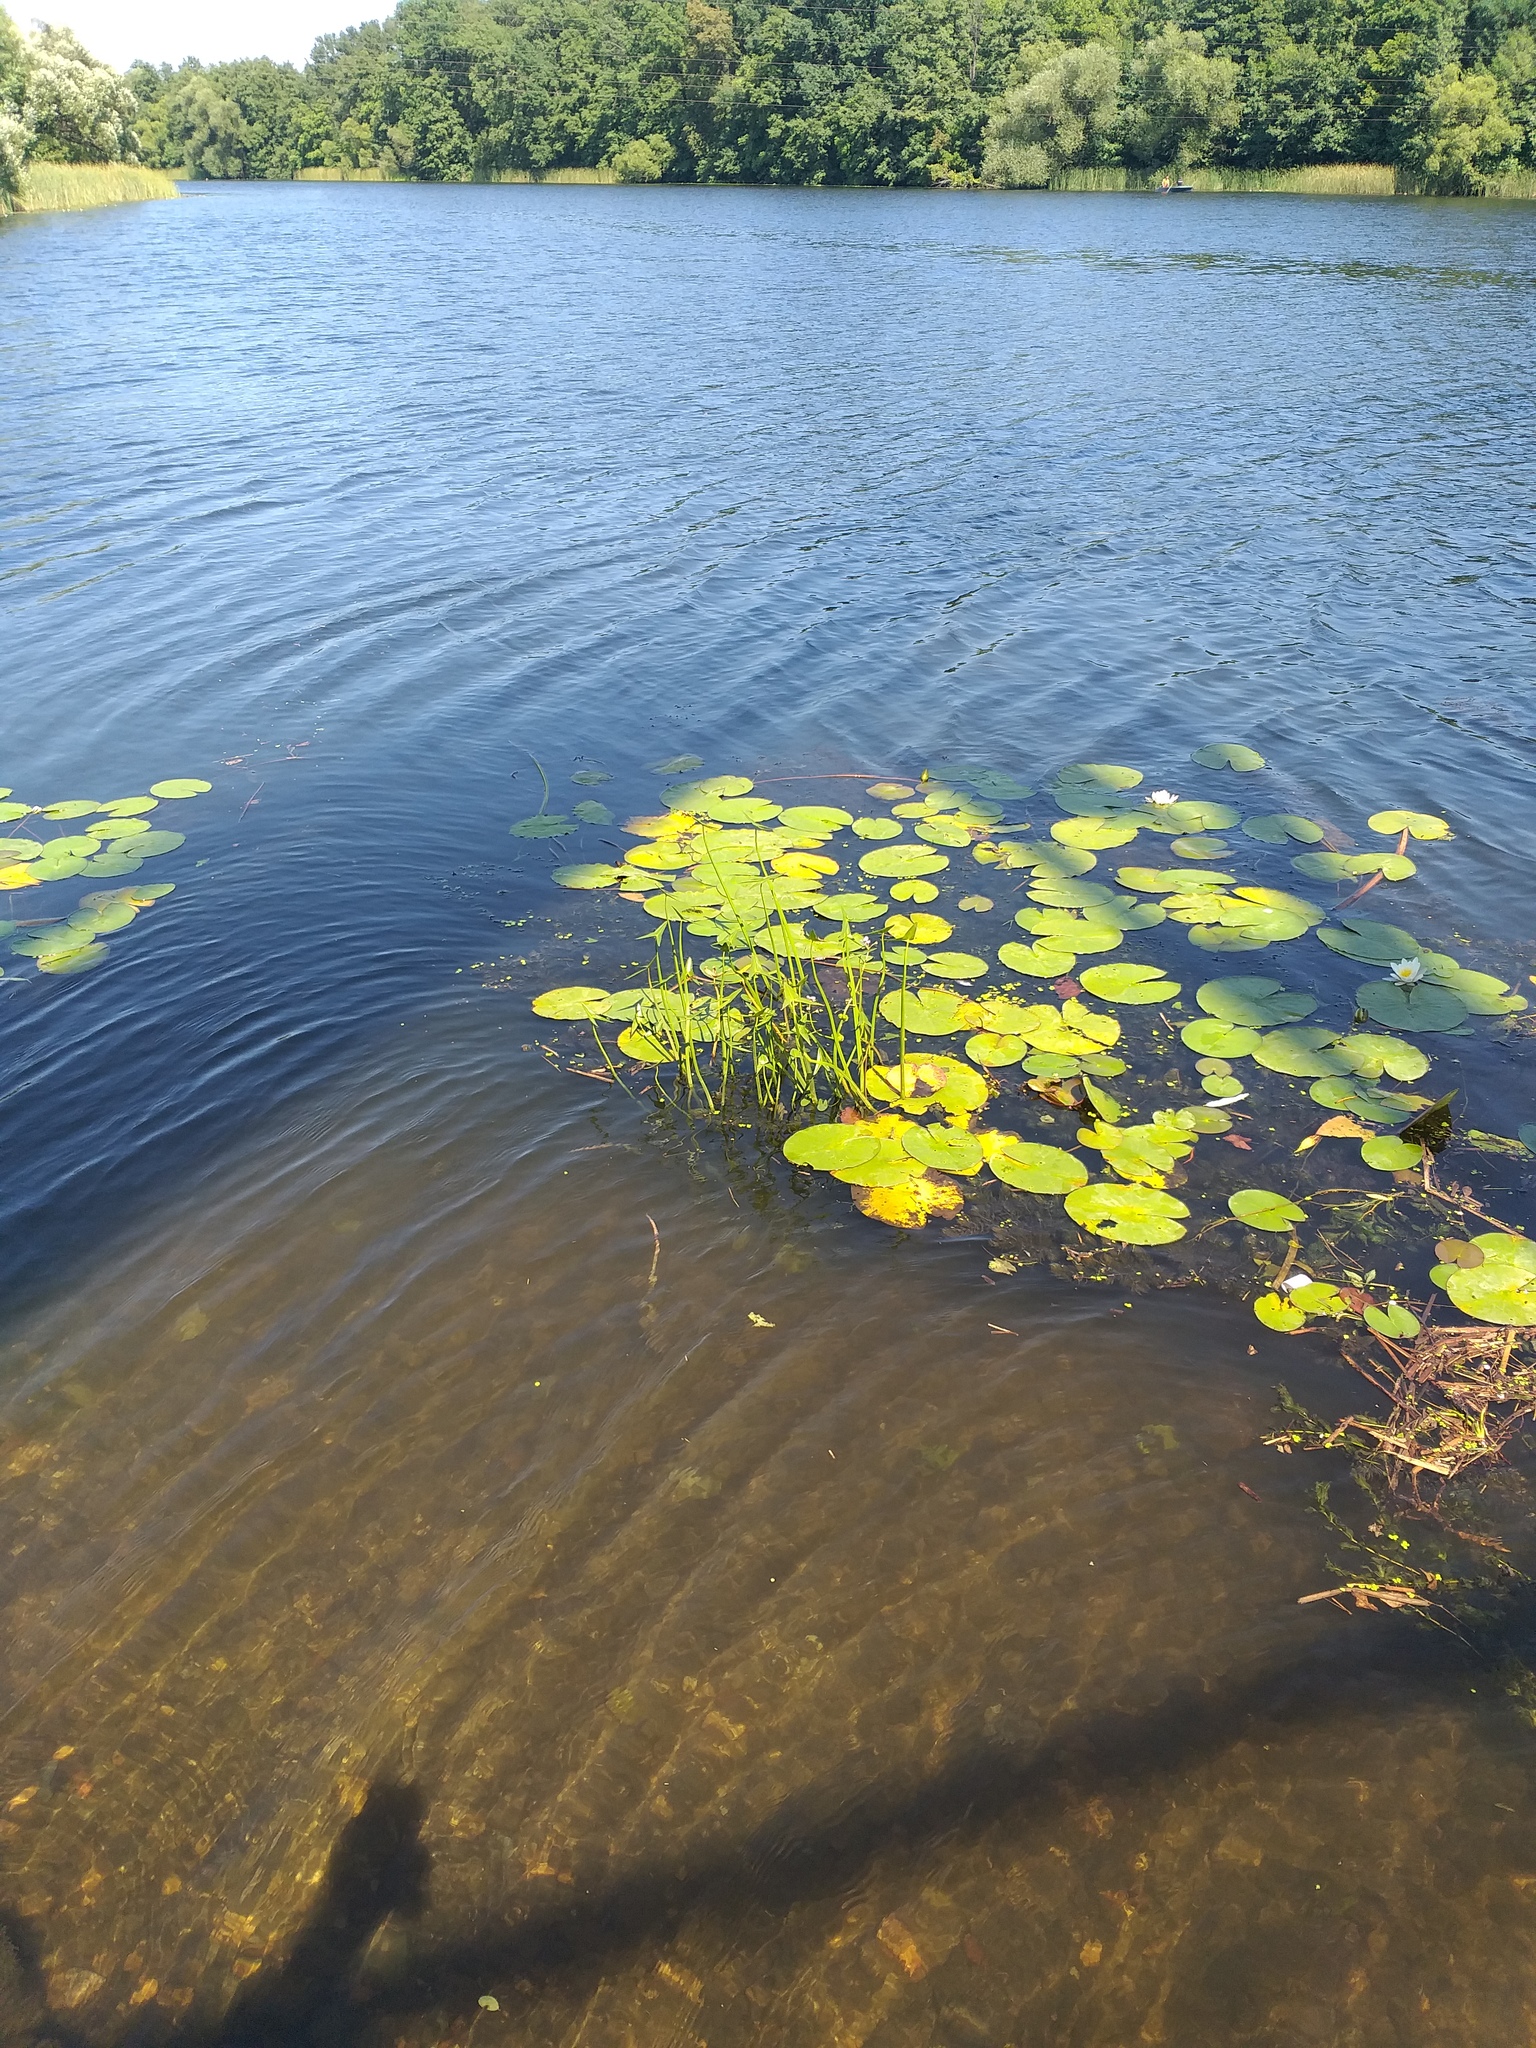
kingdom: Plantae
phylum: Tracheophyta
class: Liliopsida
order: Alismatales
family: Alismataceae
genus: Sagittaria
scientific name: Sagittaria sagittifolia
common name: Arrowhead
